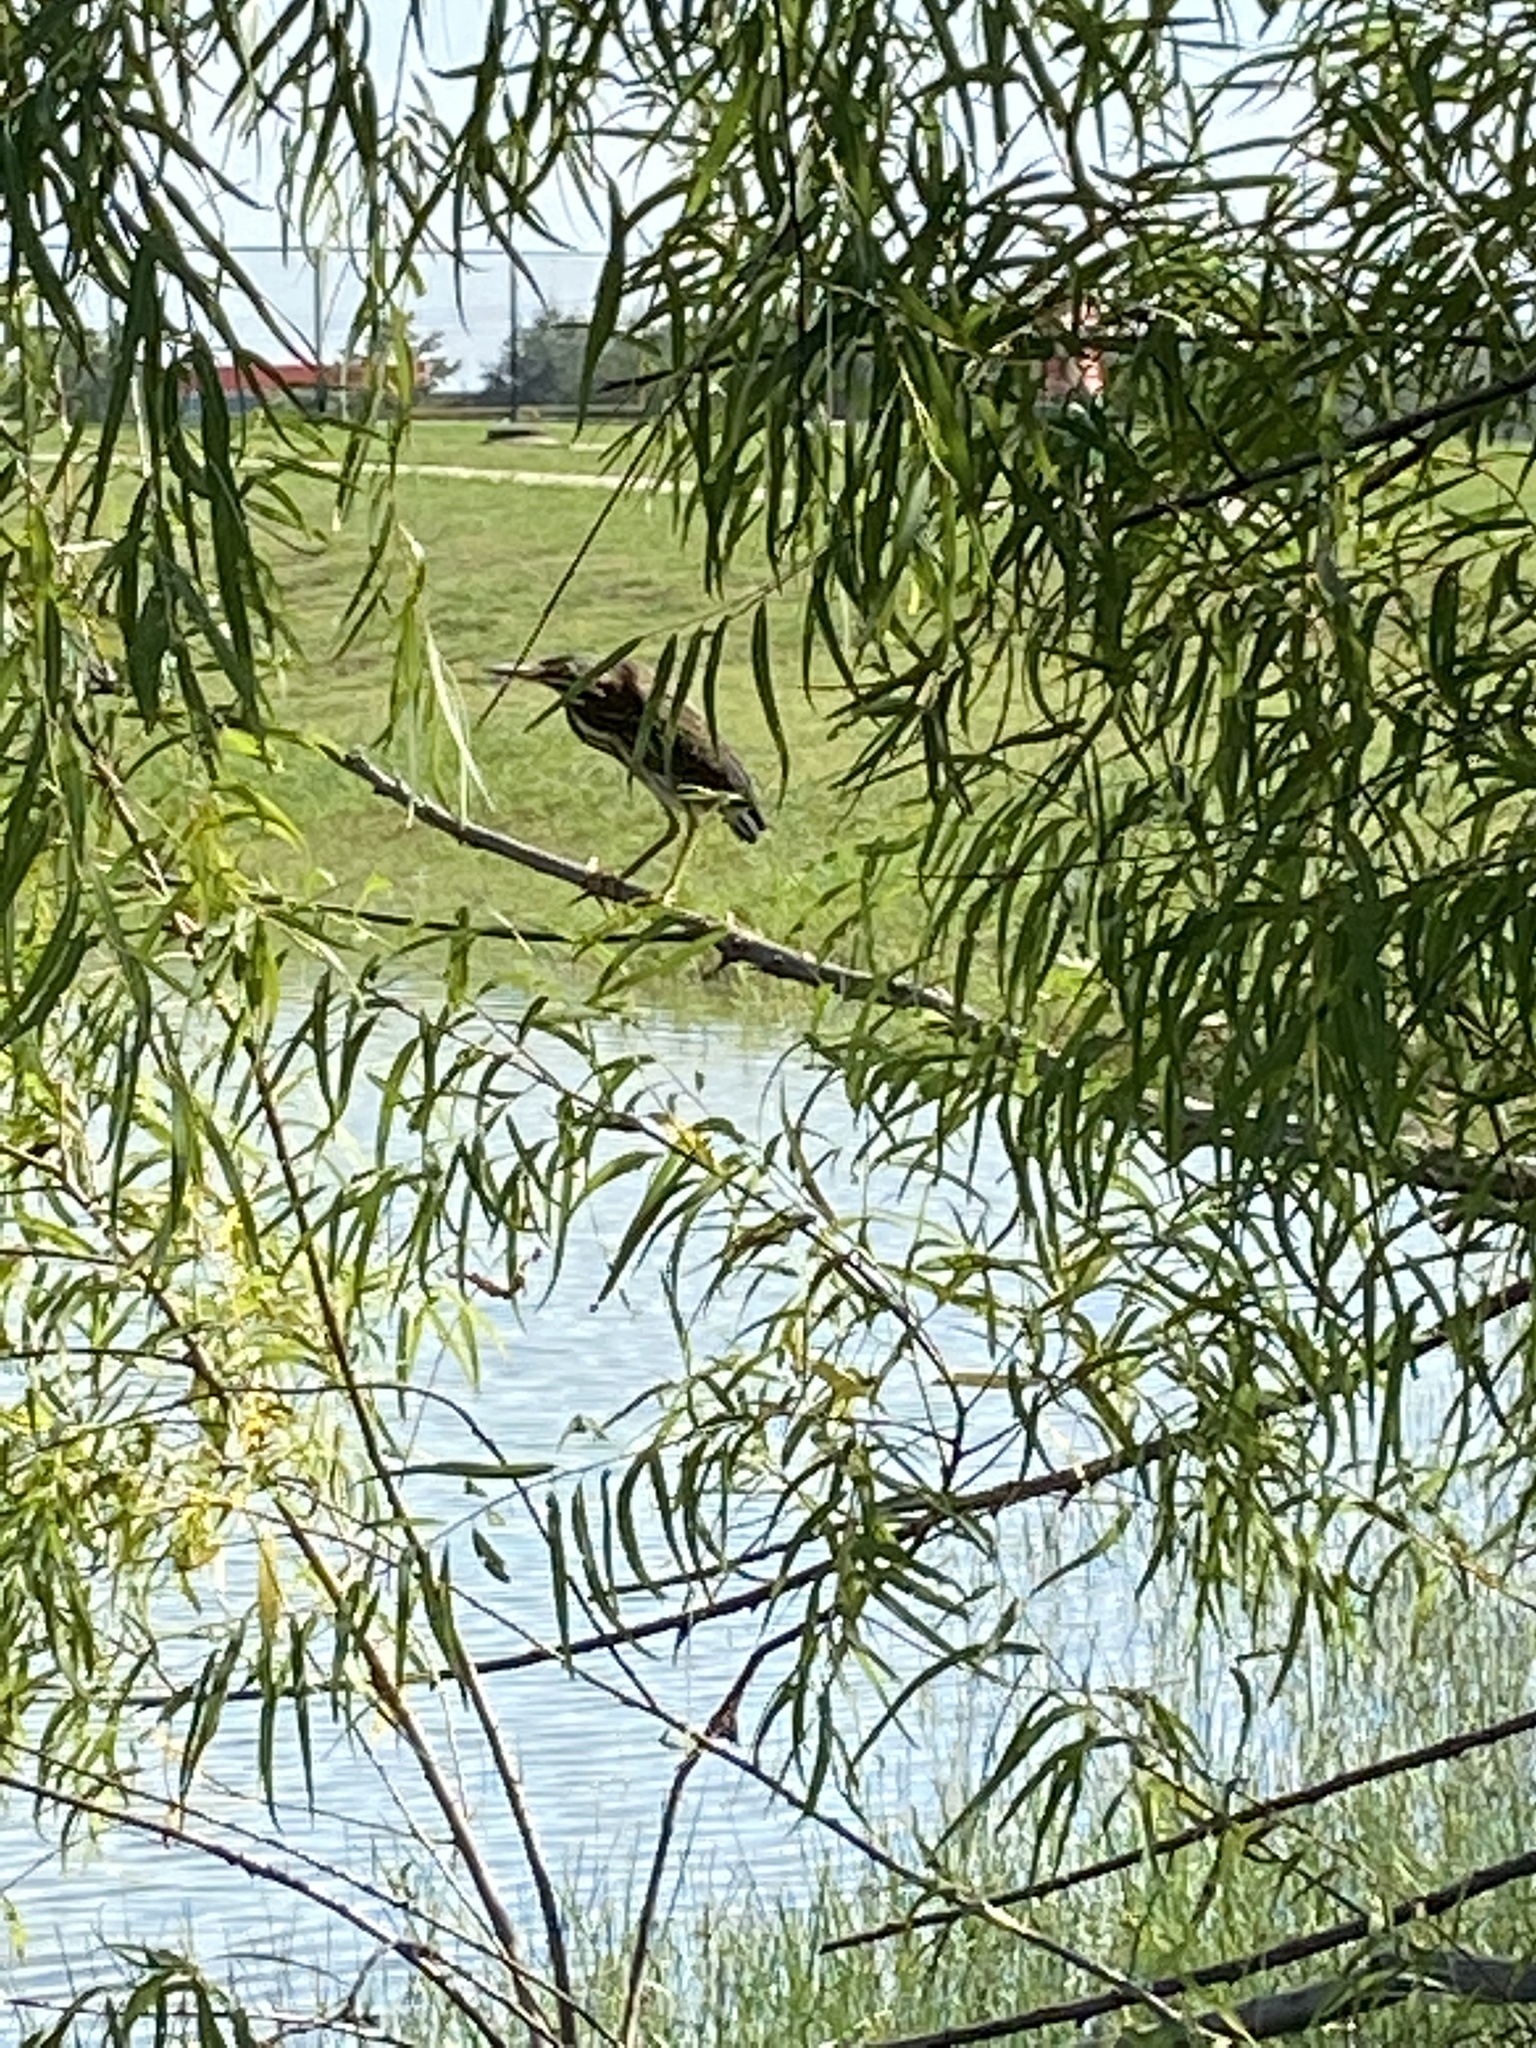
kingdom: Animalia
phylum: Chordata
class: Aves
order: Pelecaniformes
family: Ardeidae
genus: Butorides
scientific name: Butorides virescens
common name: Green heron
